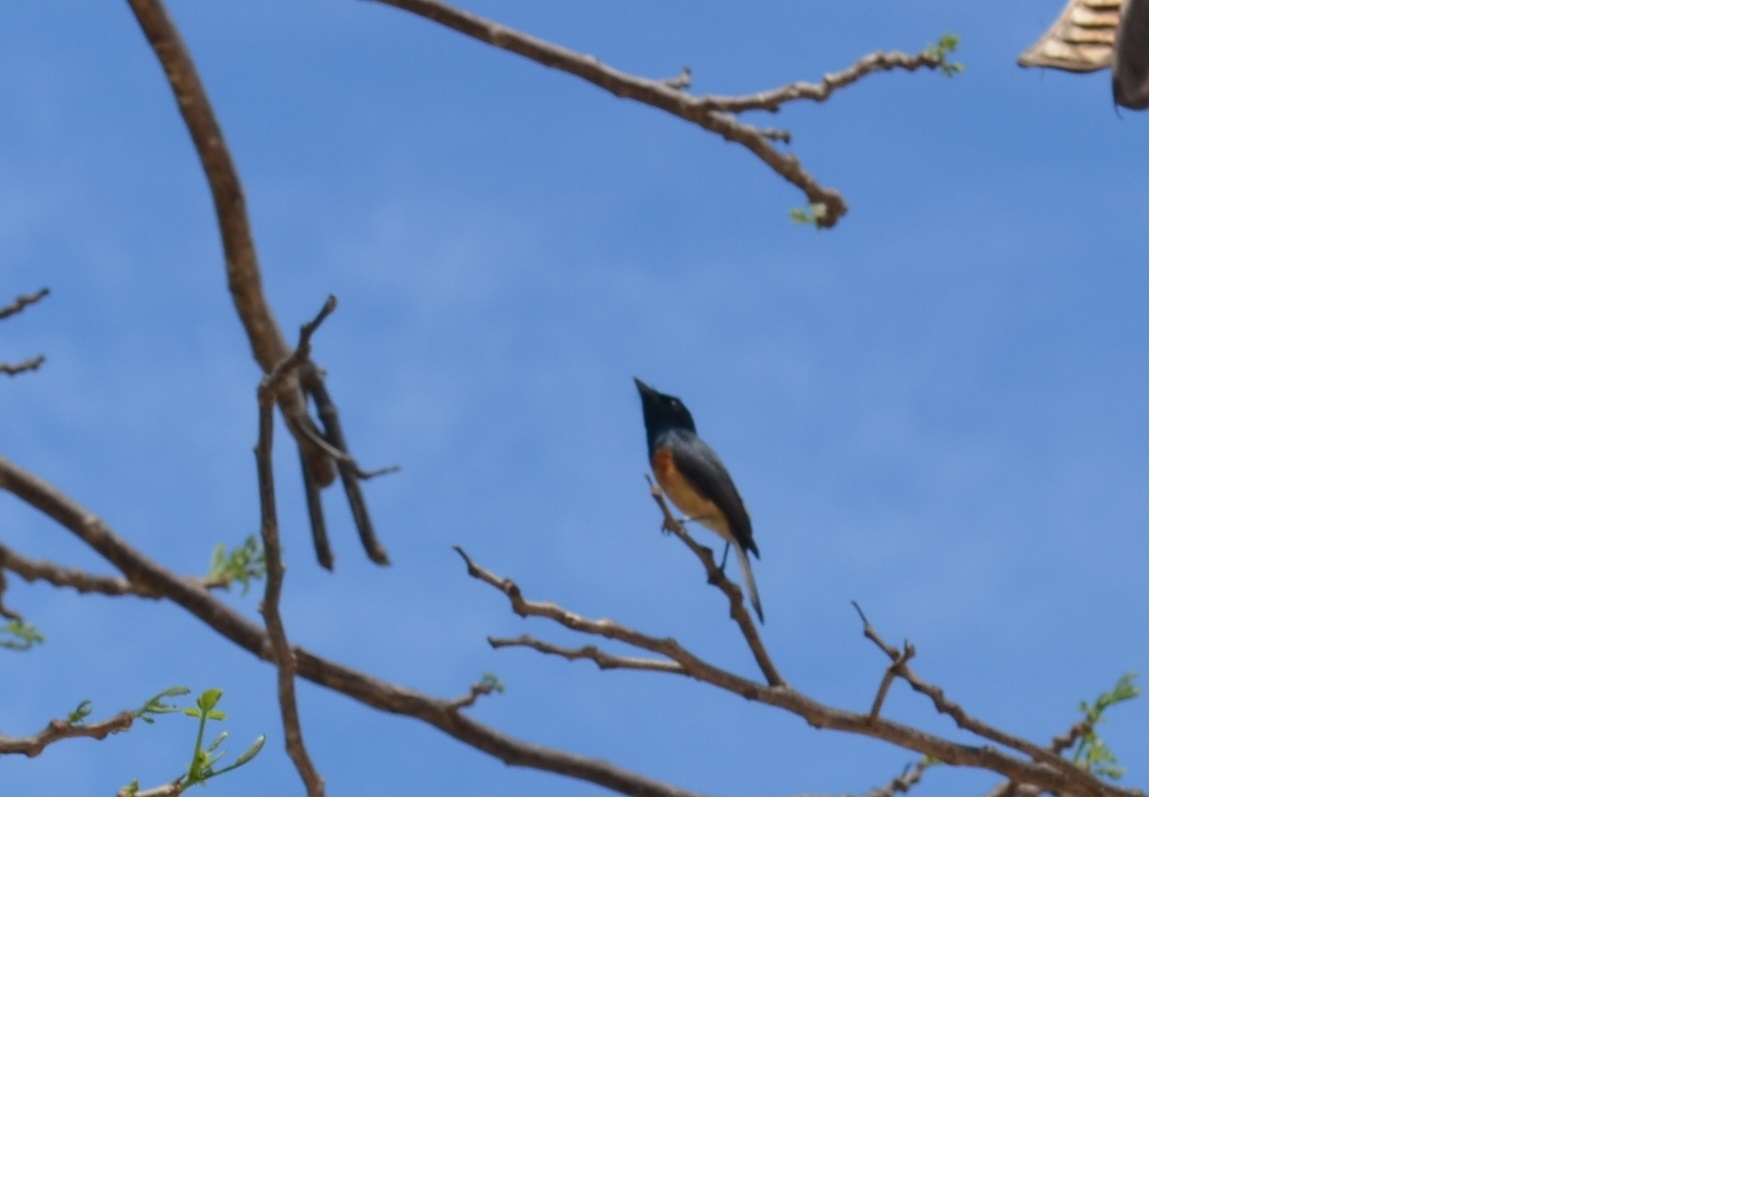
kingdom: Animalia
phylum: Chordata
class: Aves
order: Passeriformes
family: Monarchidae
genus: Myiagra
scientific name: Myiagra vanikorensis
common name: Vanikoro flycatcher
